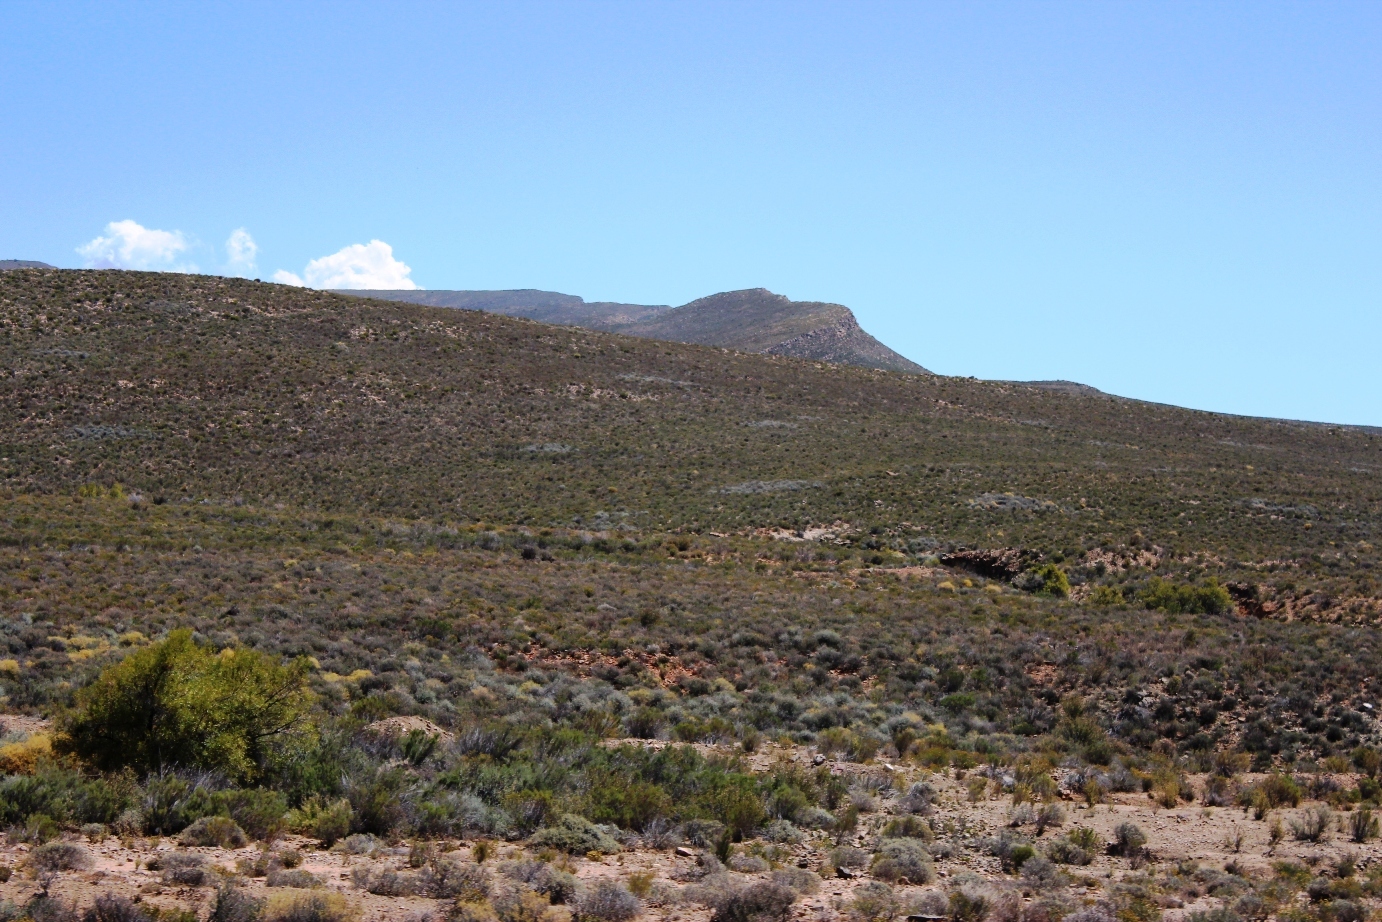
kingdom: Animalia
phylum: Arthropoda
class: Insecta
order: Blattodea
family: Hodotermitidae
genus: Microhodotermes
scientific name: Microhodotermes viator
